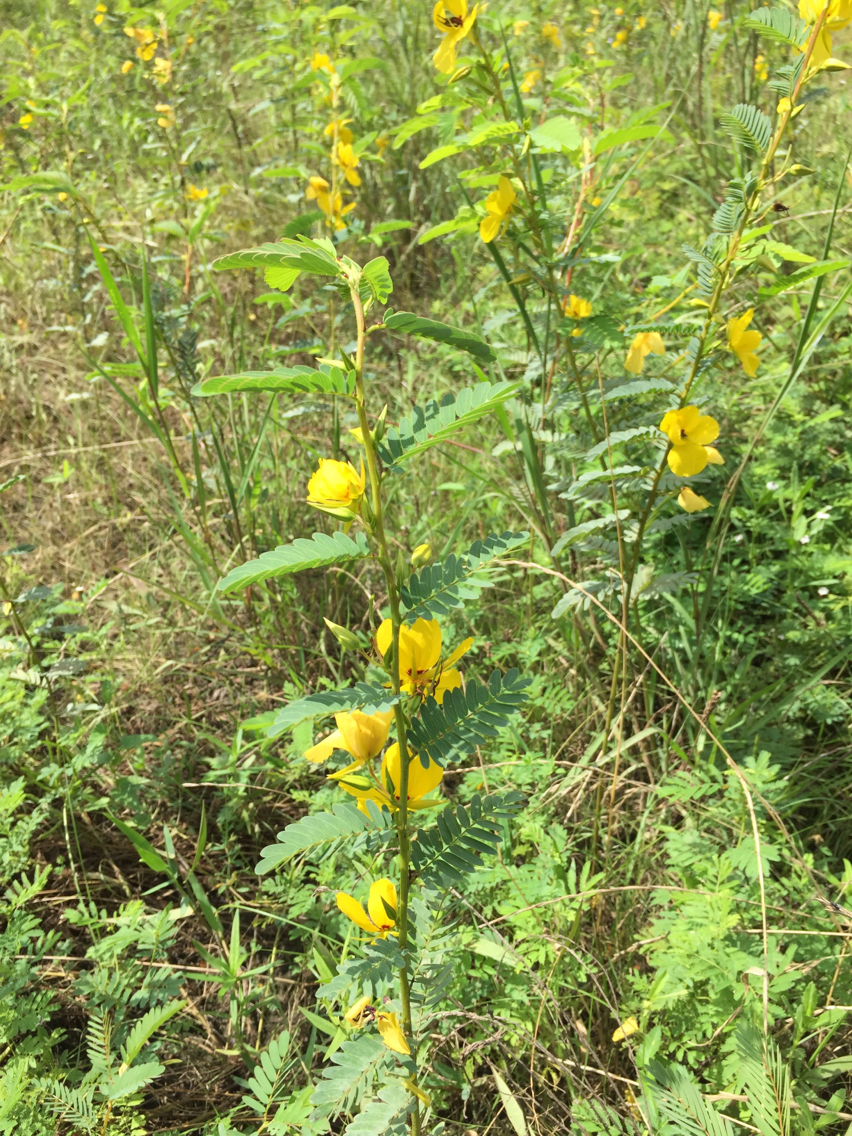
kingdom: Plantae
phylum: Tracheophyta
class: Magnoliopsida
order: Fabales
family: Fabaceae
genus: Chamaecrista
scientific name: Chamaecrista fasciculata
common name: Golden cassia
